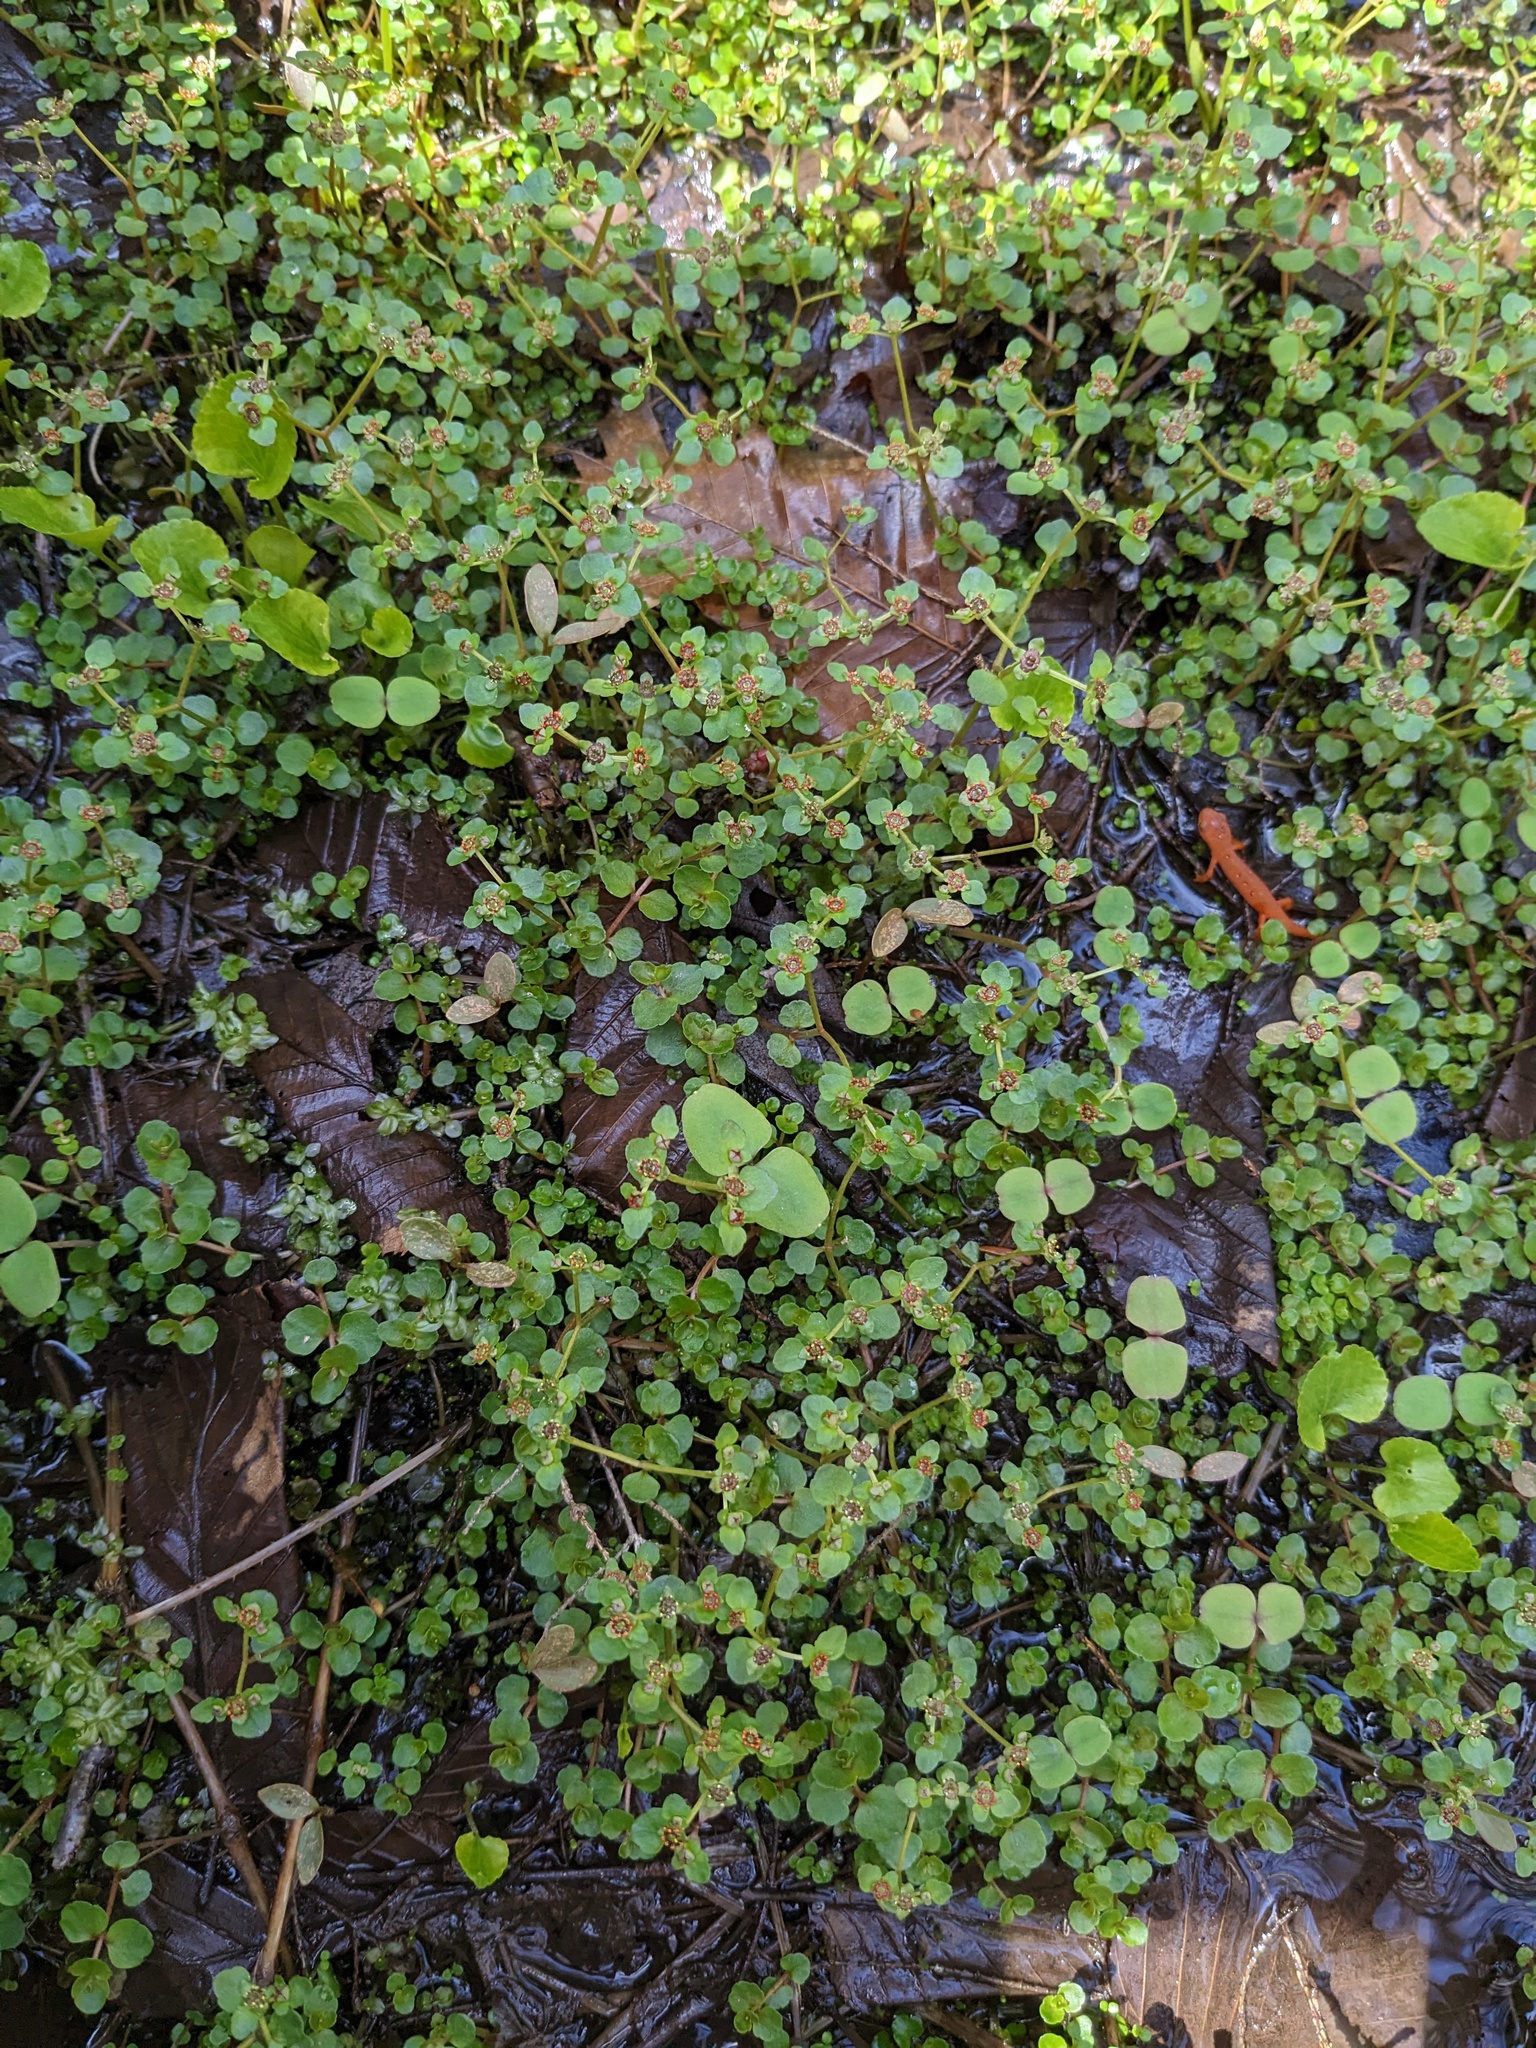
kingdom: Plantae
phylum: Tracheophyta
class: Magnoliopsida
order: Saxifragales
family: Saxifragaceae
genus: Chrysosplenium
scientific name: Chrysosplenium americanum
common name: American golden-saxifrage
